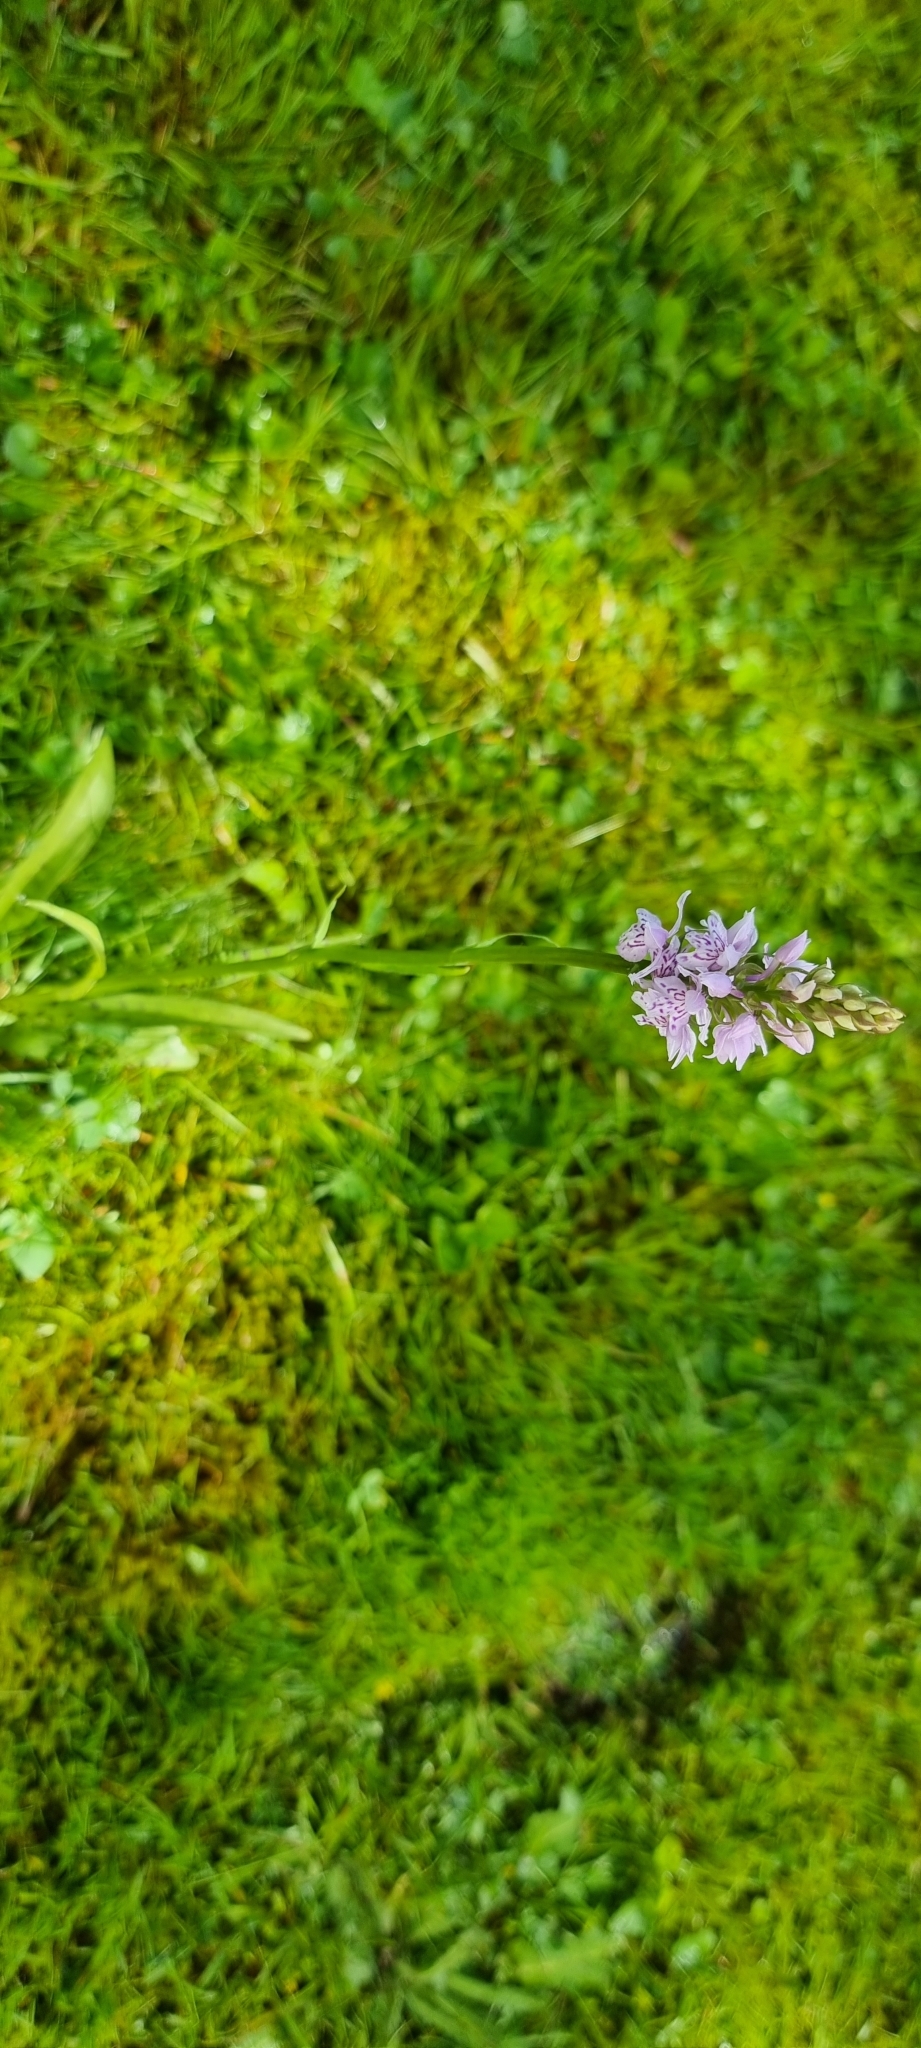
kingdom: Plantae
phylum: Tracheophyta
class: Liliopsida
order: Asparagales
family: Orchidaceae
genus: Dactylorhiza
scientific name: Dactylorhiza maculata
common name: Heath spotted-orchid
